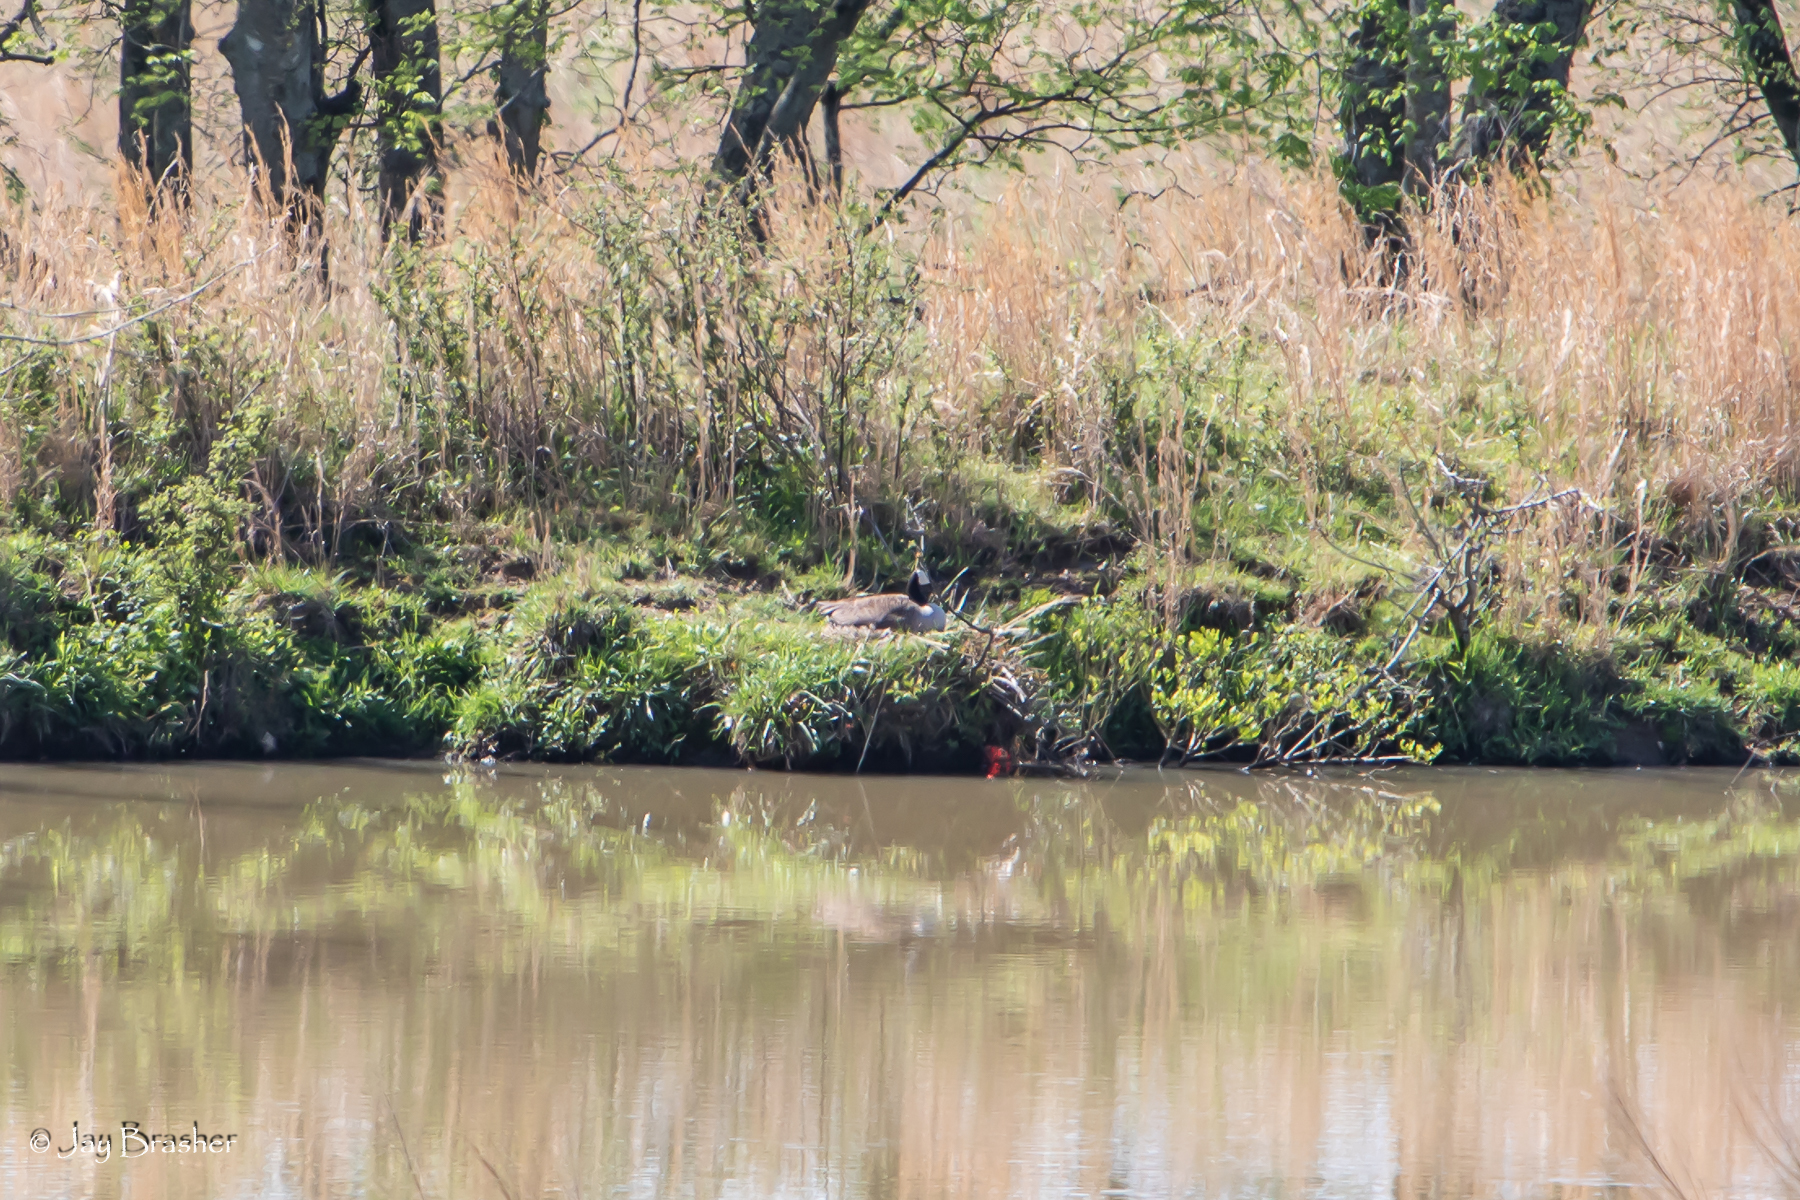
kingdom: Animalia
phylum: Chordata
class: Aves
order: Anseriformes
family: Anatidae
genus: Branta
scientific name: Branta canadensis
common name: Canada goose
